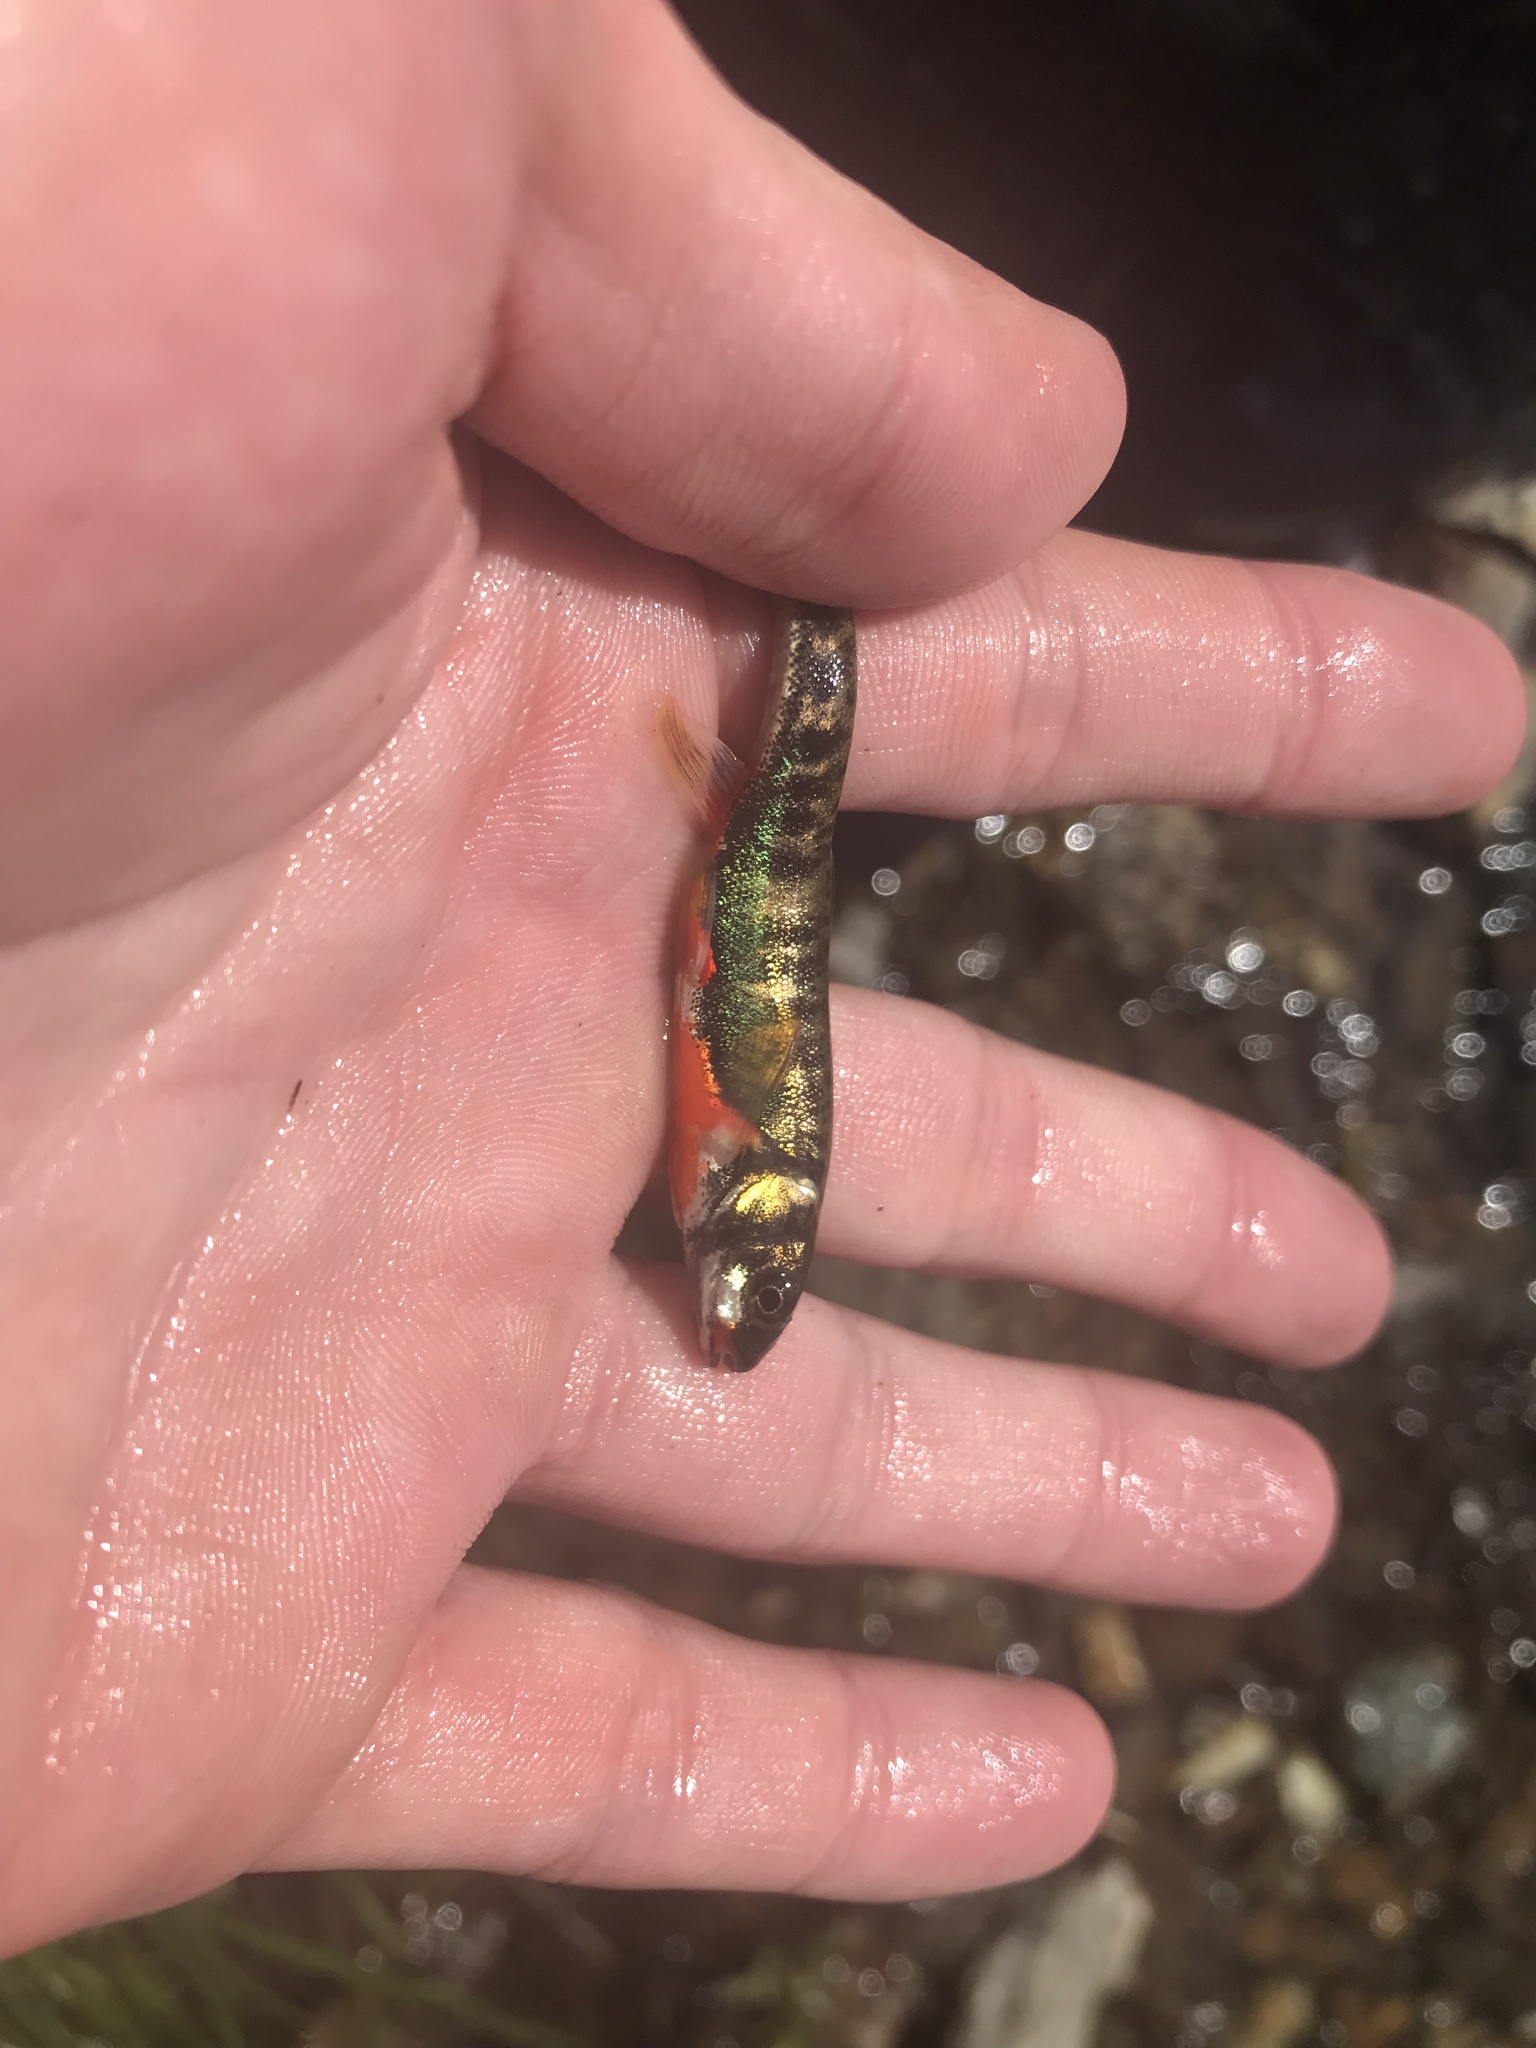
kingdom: Animalia
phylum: Chordata
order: Cypriniformes
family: Cyprinidae
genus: Phoxinus
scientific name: Phoxinus
